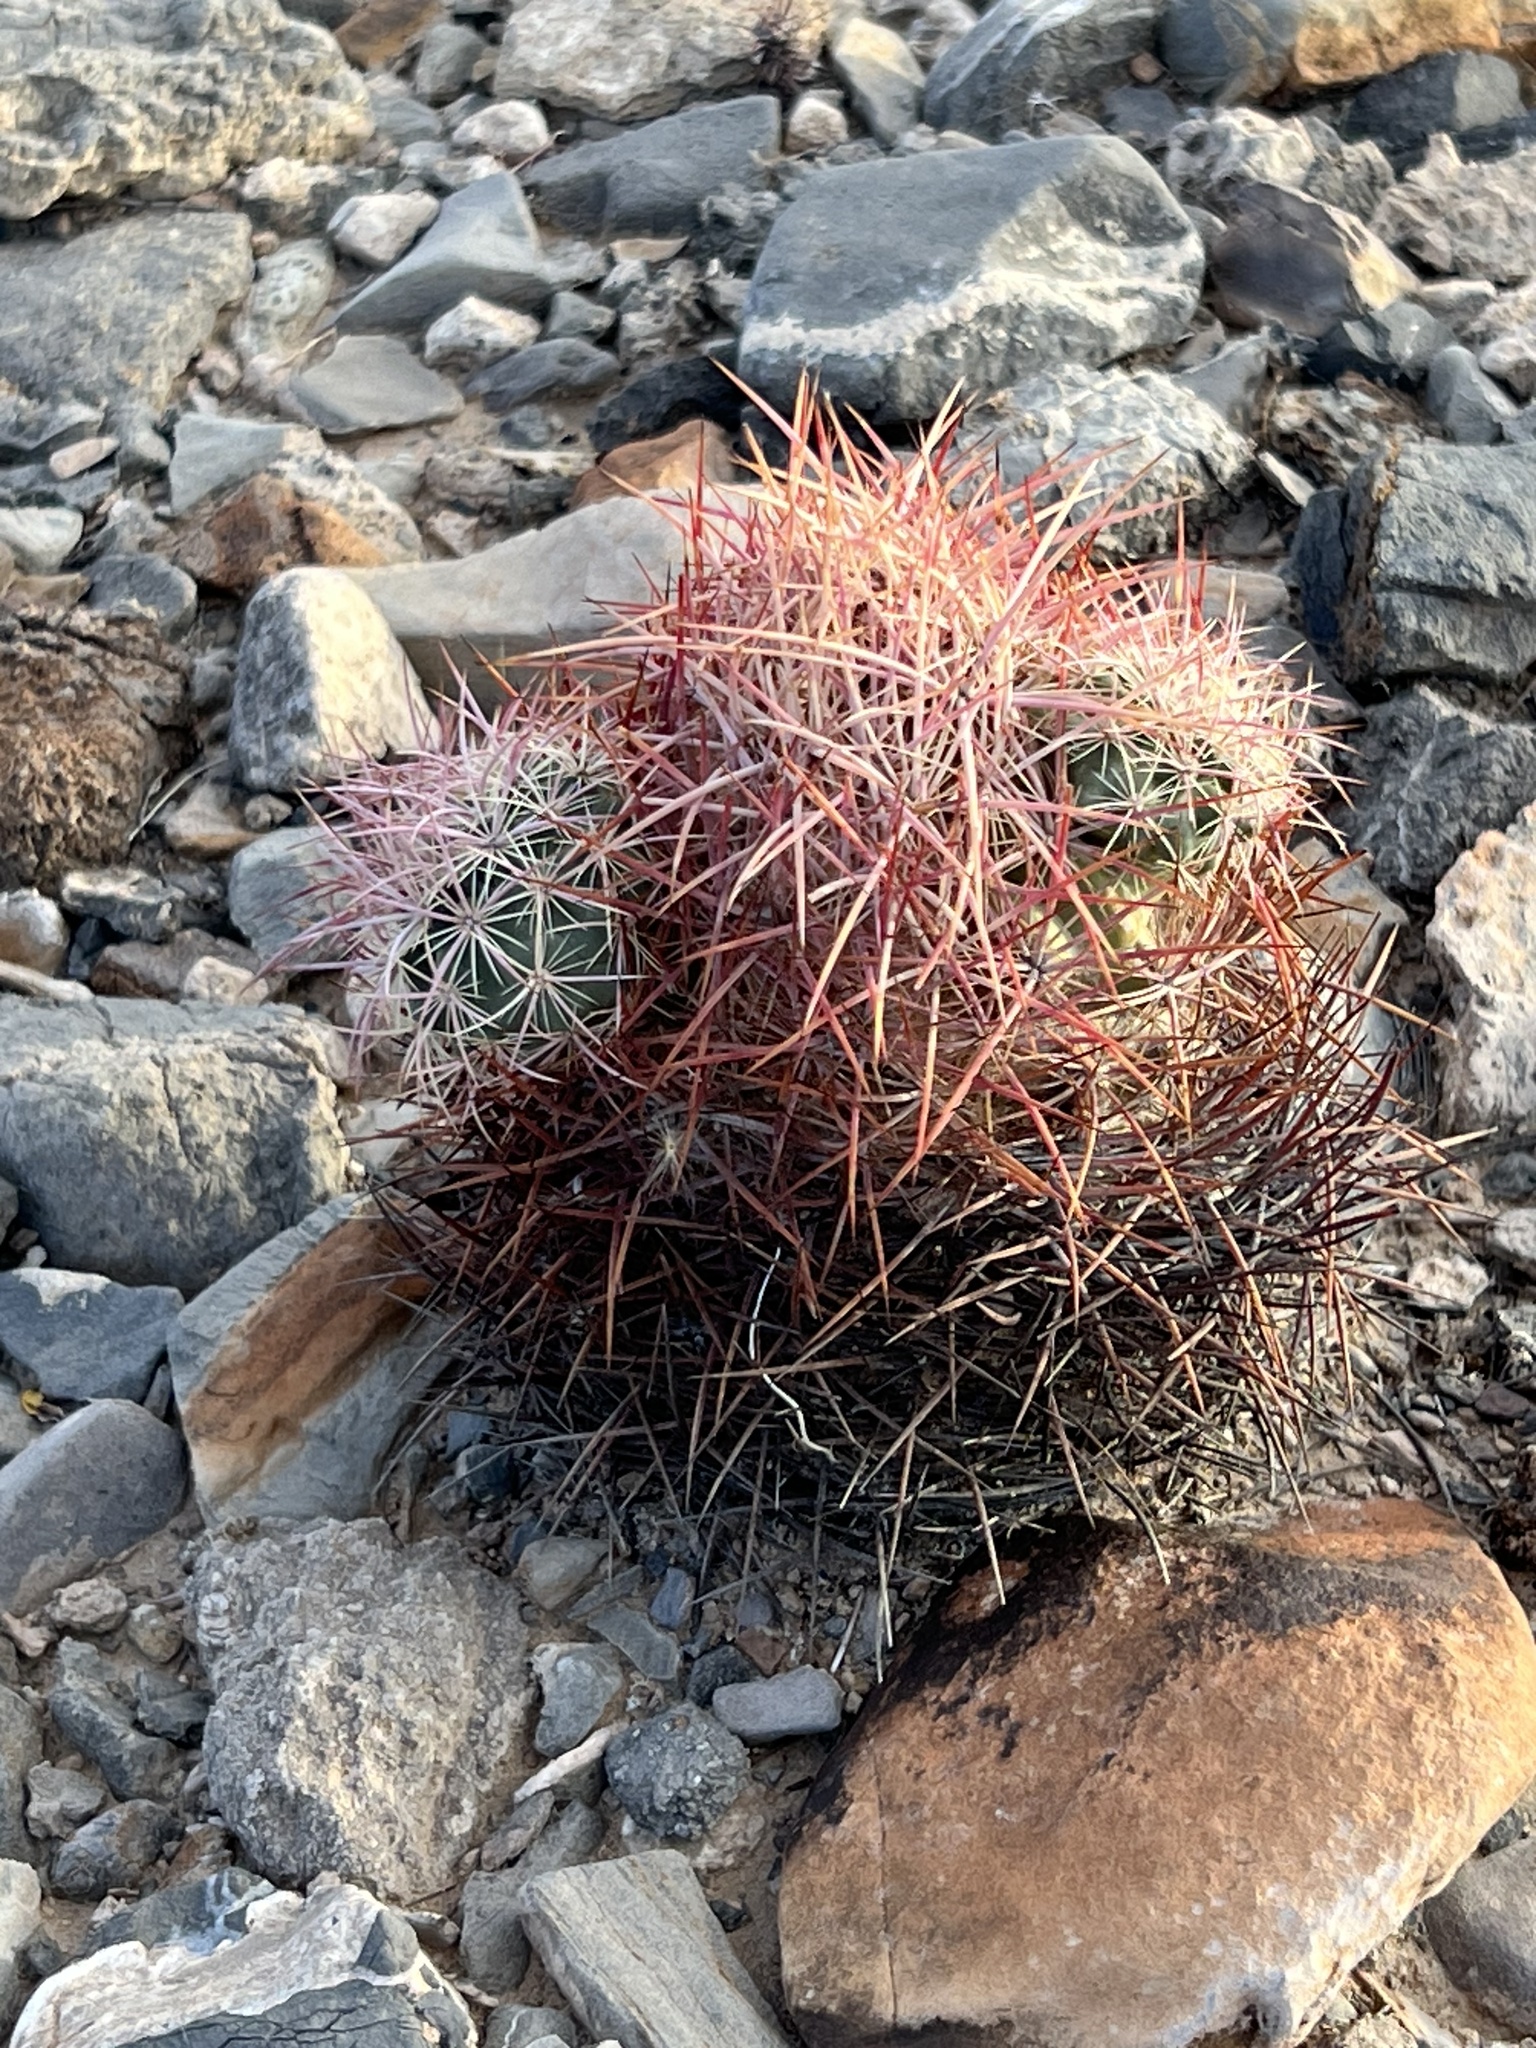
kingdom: Plantae
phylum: Tracheophyta
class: Magnoliopsida
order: Caryophyllales
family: Cactaceae
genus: Sclerocactus
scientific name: Sclerocactus johnsonii
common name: Eight-spine fishhook cactus
